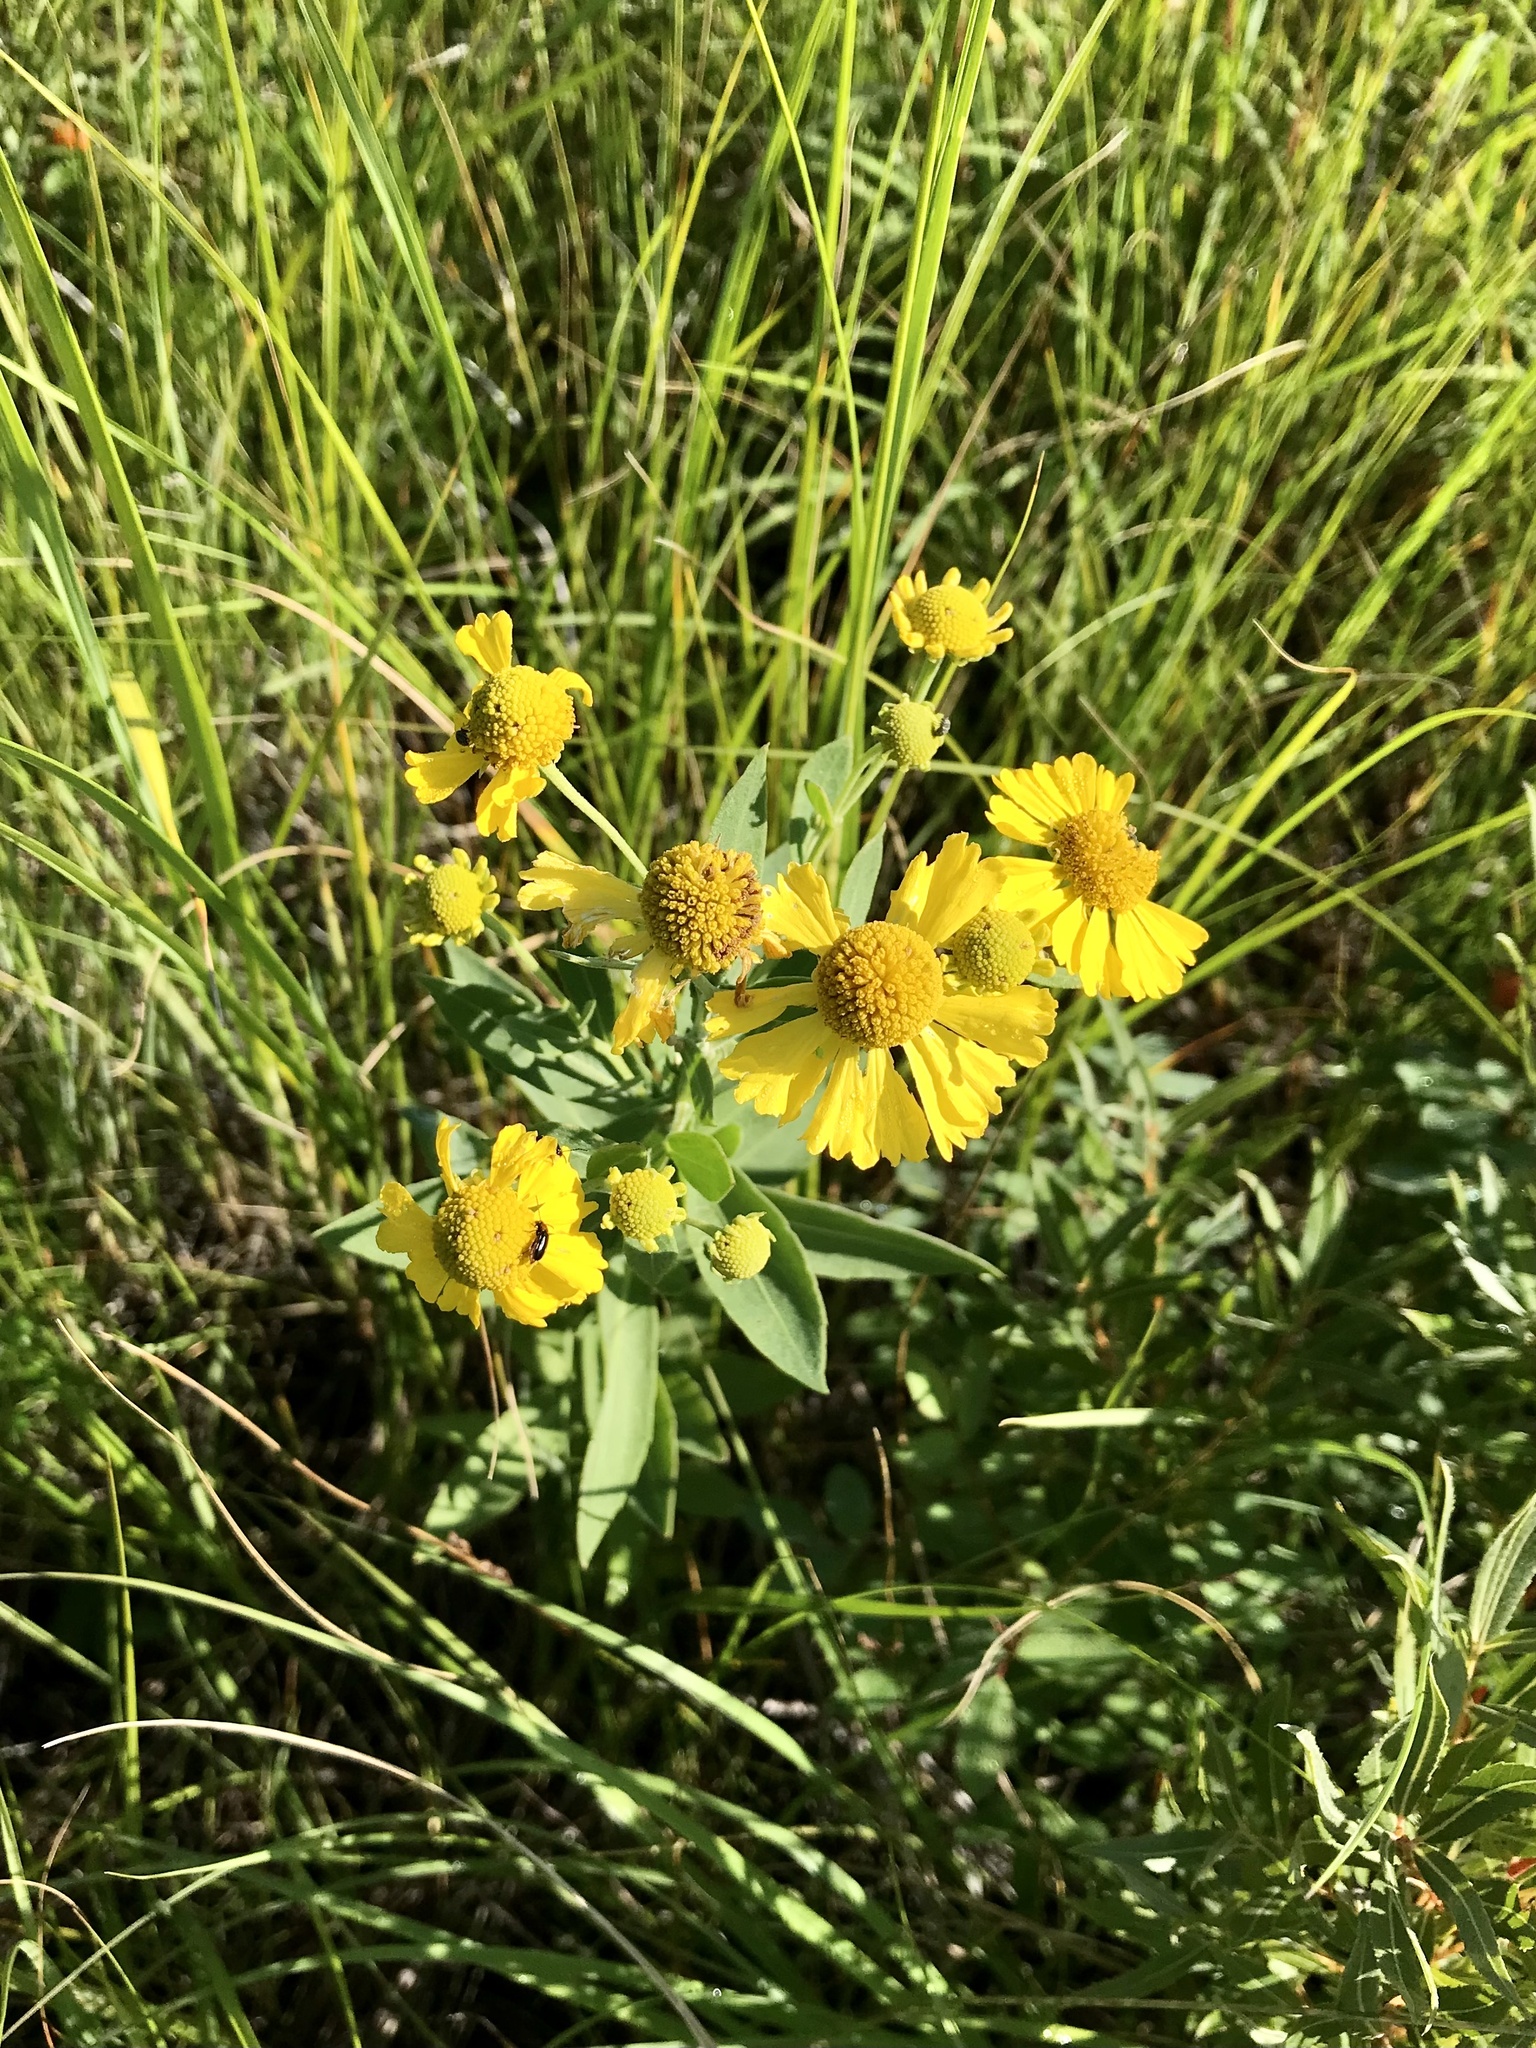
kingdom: Plantae
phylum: Tracheophyta
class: Magnoliopsida
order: Asterales
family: Asteraceae
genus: Helenium
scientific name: Helenium autumnale
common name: Sneezeweed
